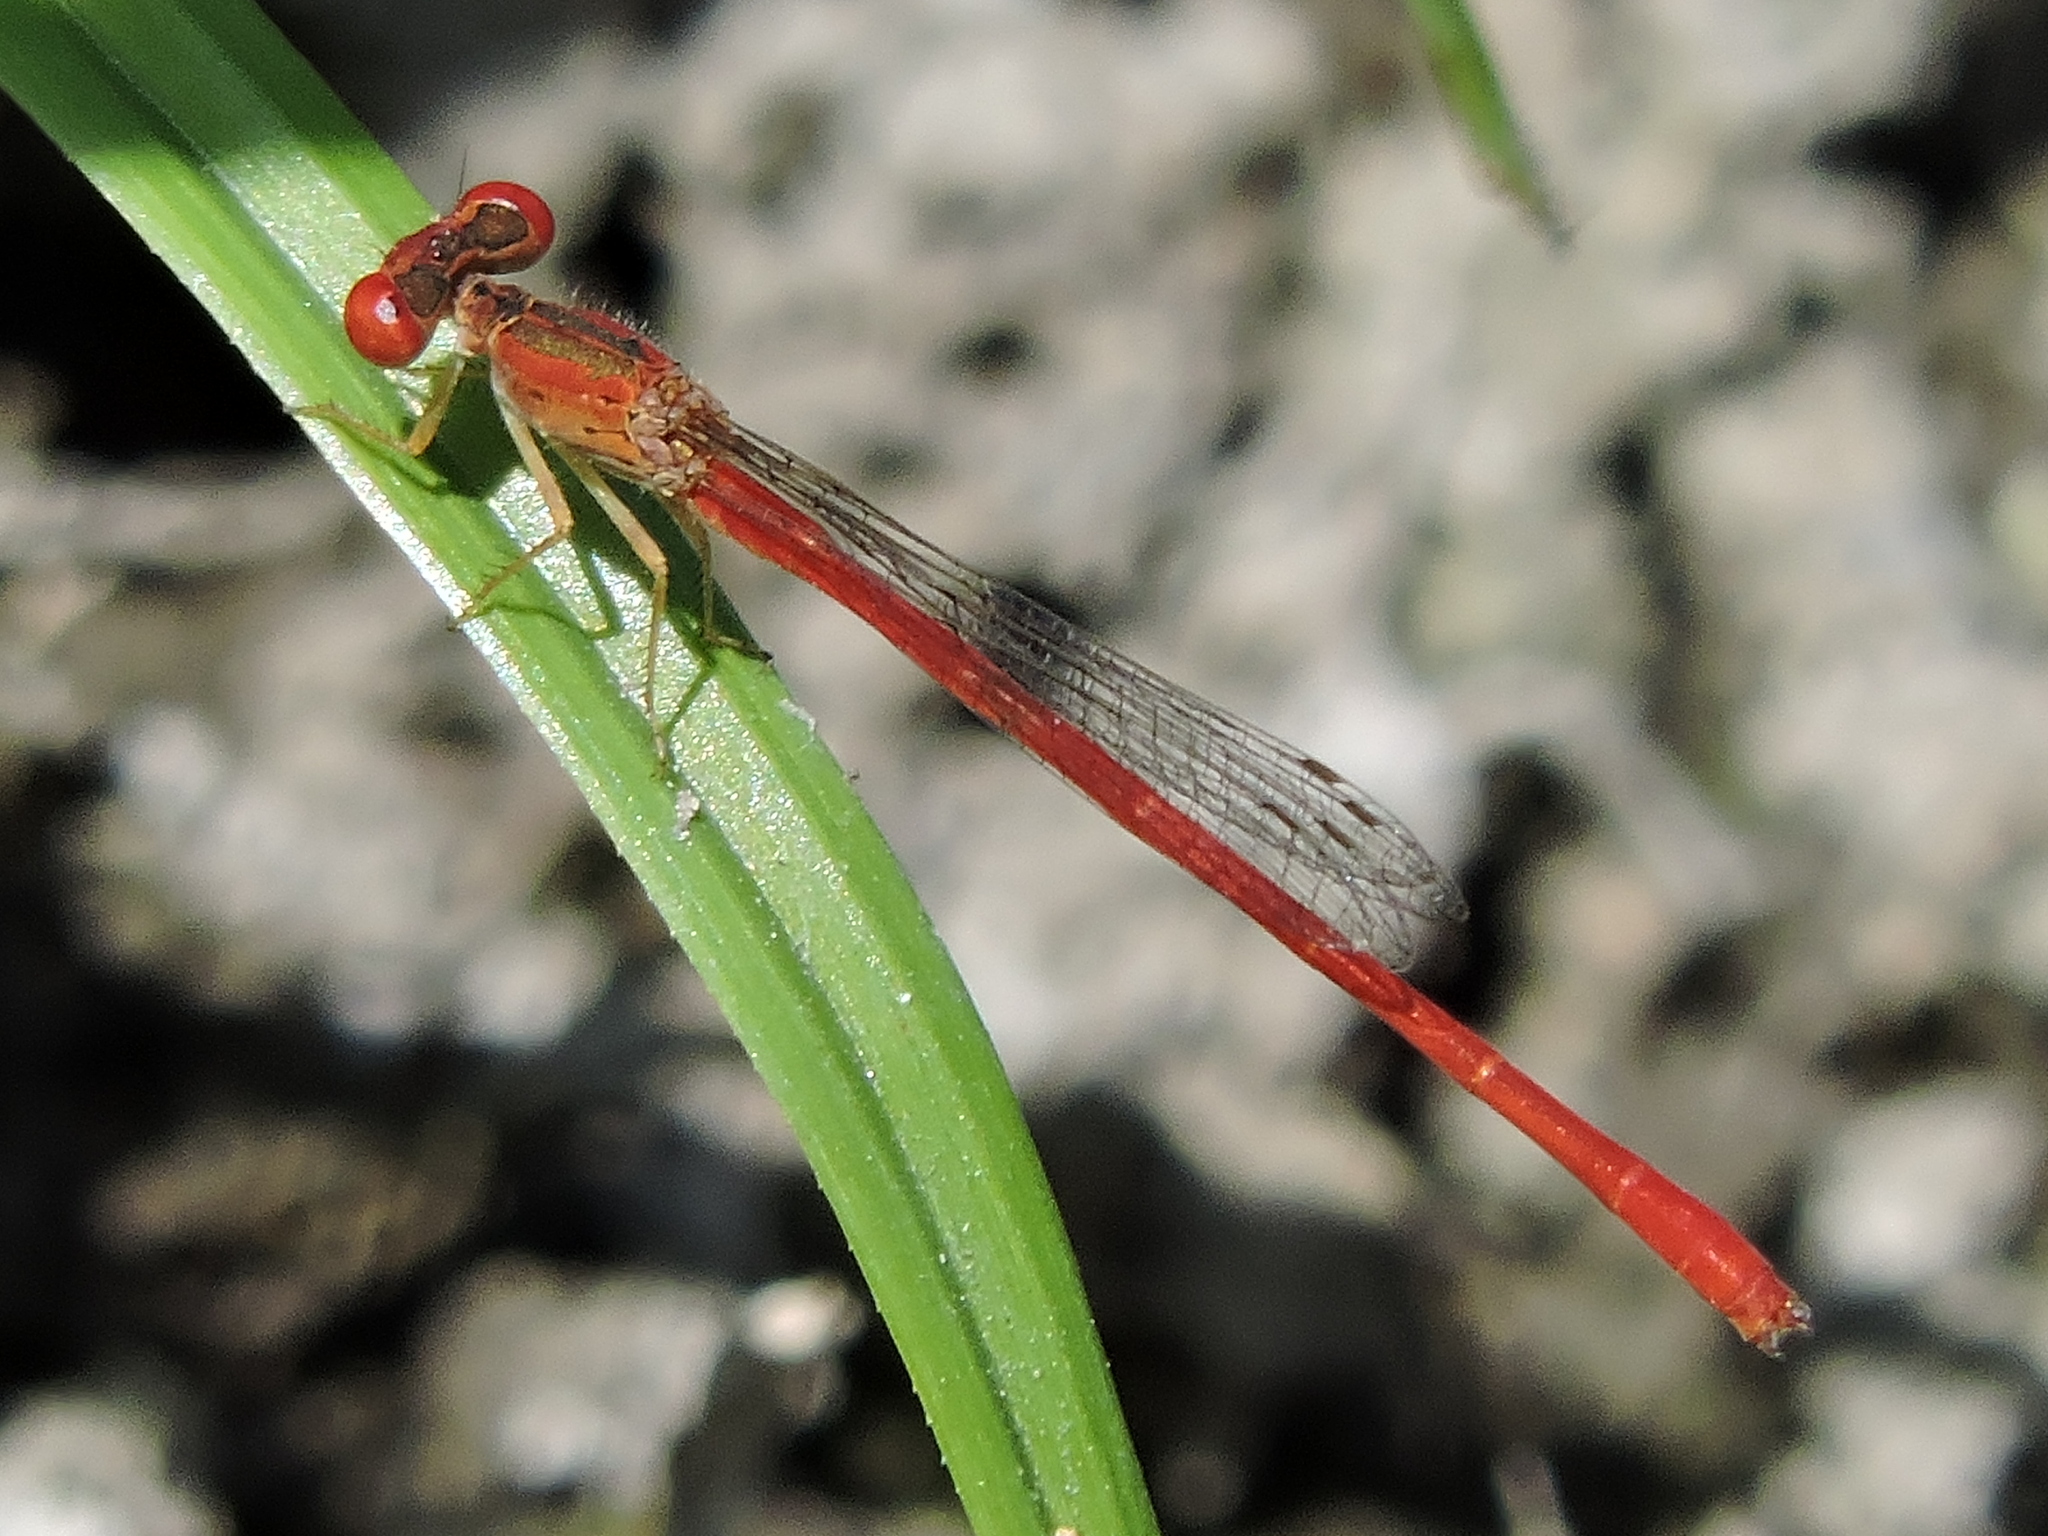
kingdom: Animalia
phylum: Arthropoda
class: Insecta
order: Odonata
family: Coenagrionidae
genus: Telebasis
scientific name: Telebasis salva
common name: Desert firetail
